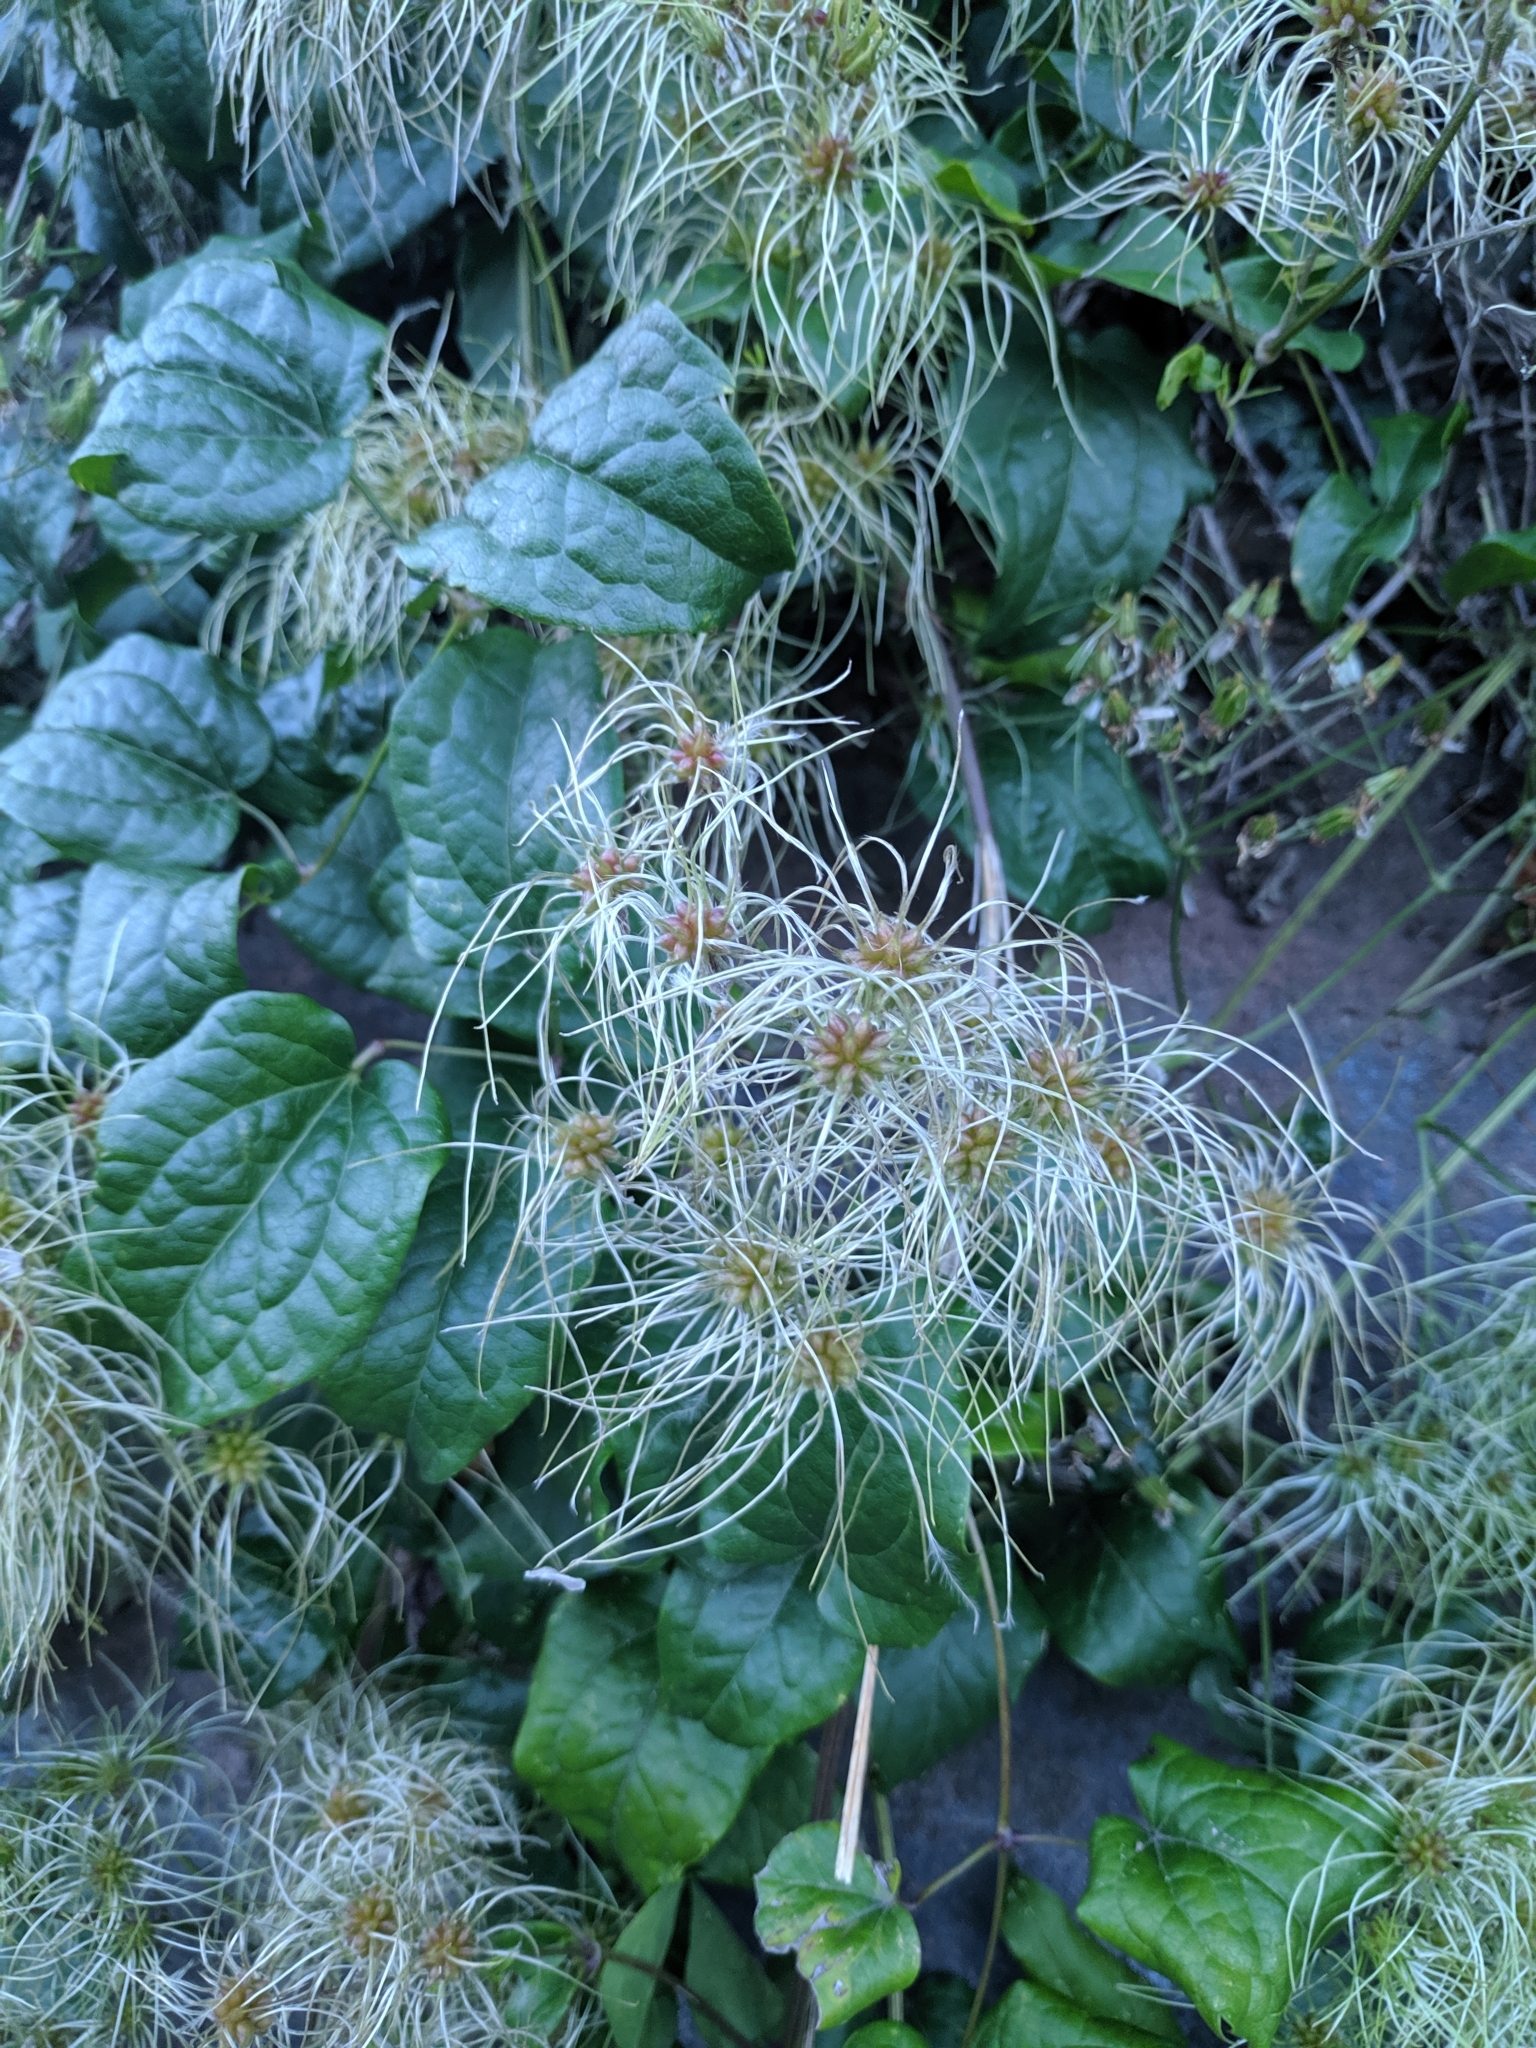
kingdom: Plantae
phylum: Tracheophyta
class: Magnoliopsida
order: Ranunculales
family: Ranunculaceae
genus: Clematis
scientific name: Clematis vitalba
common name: Evergreen clematis
